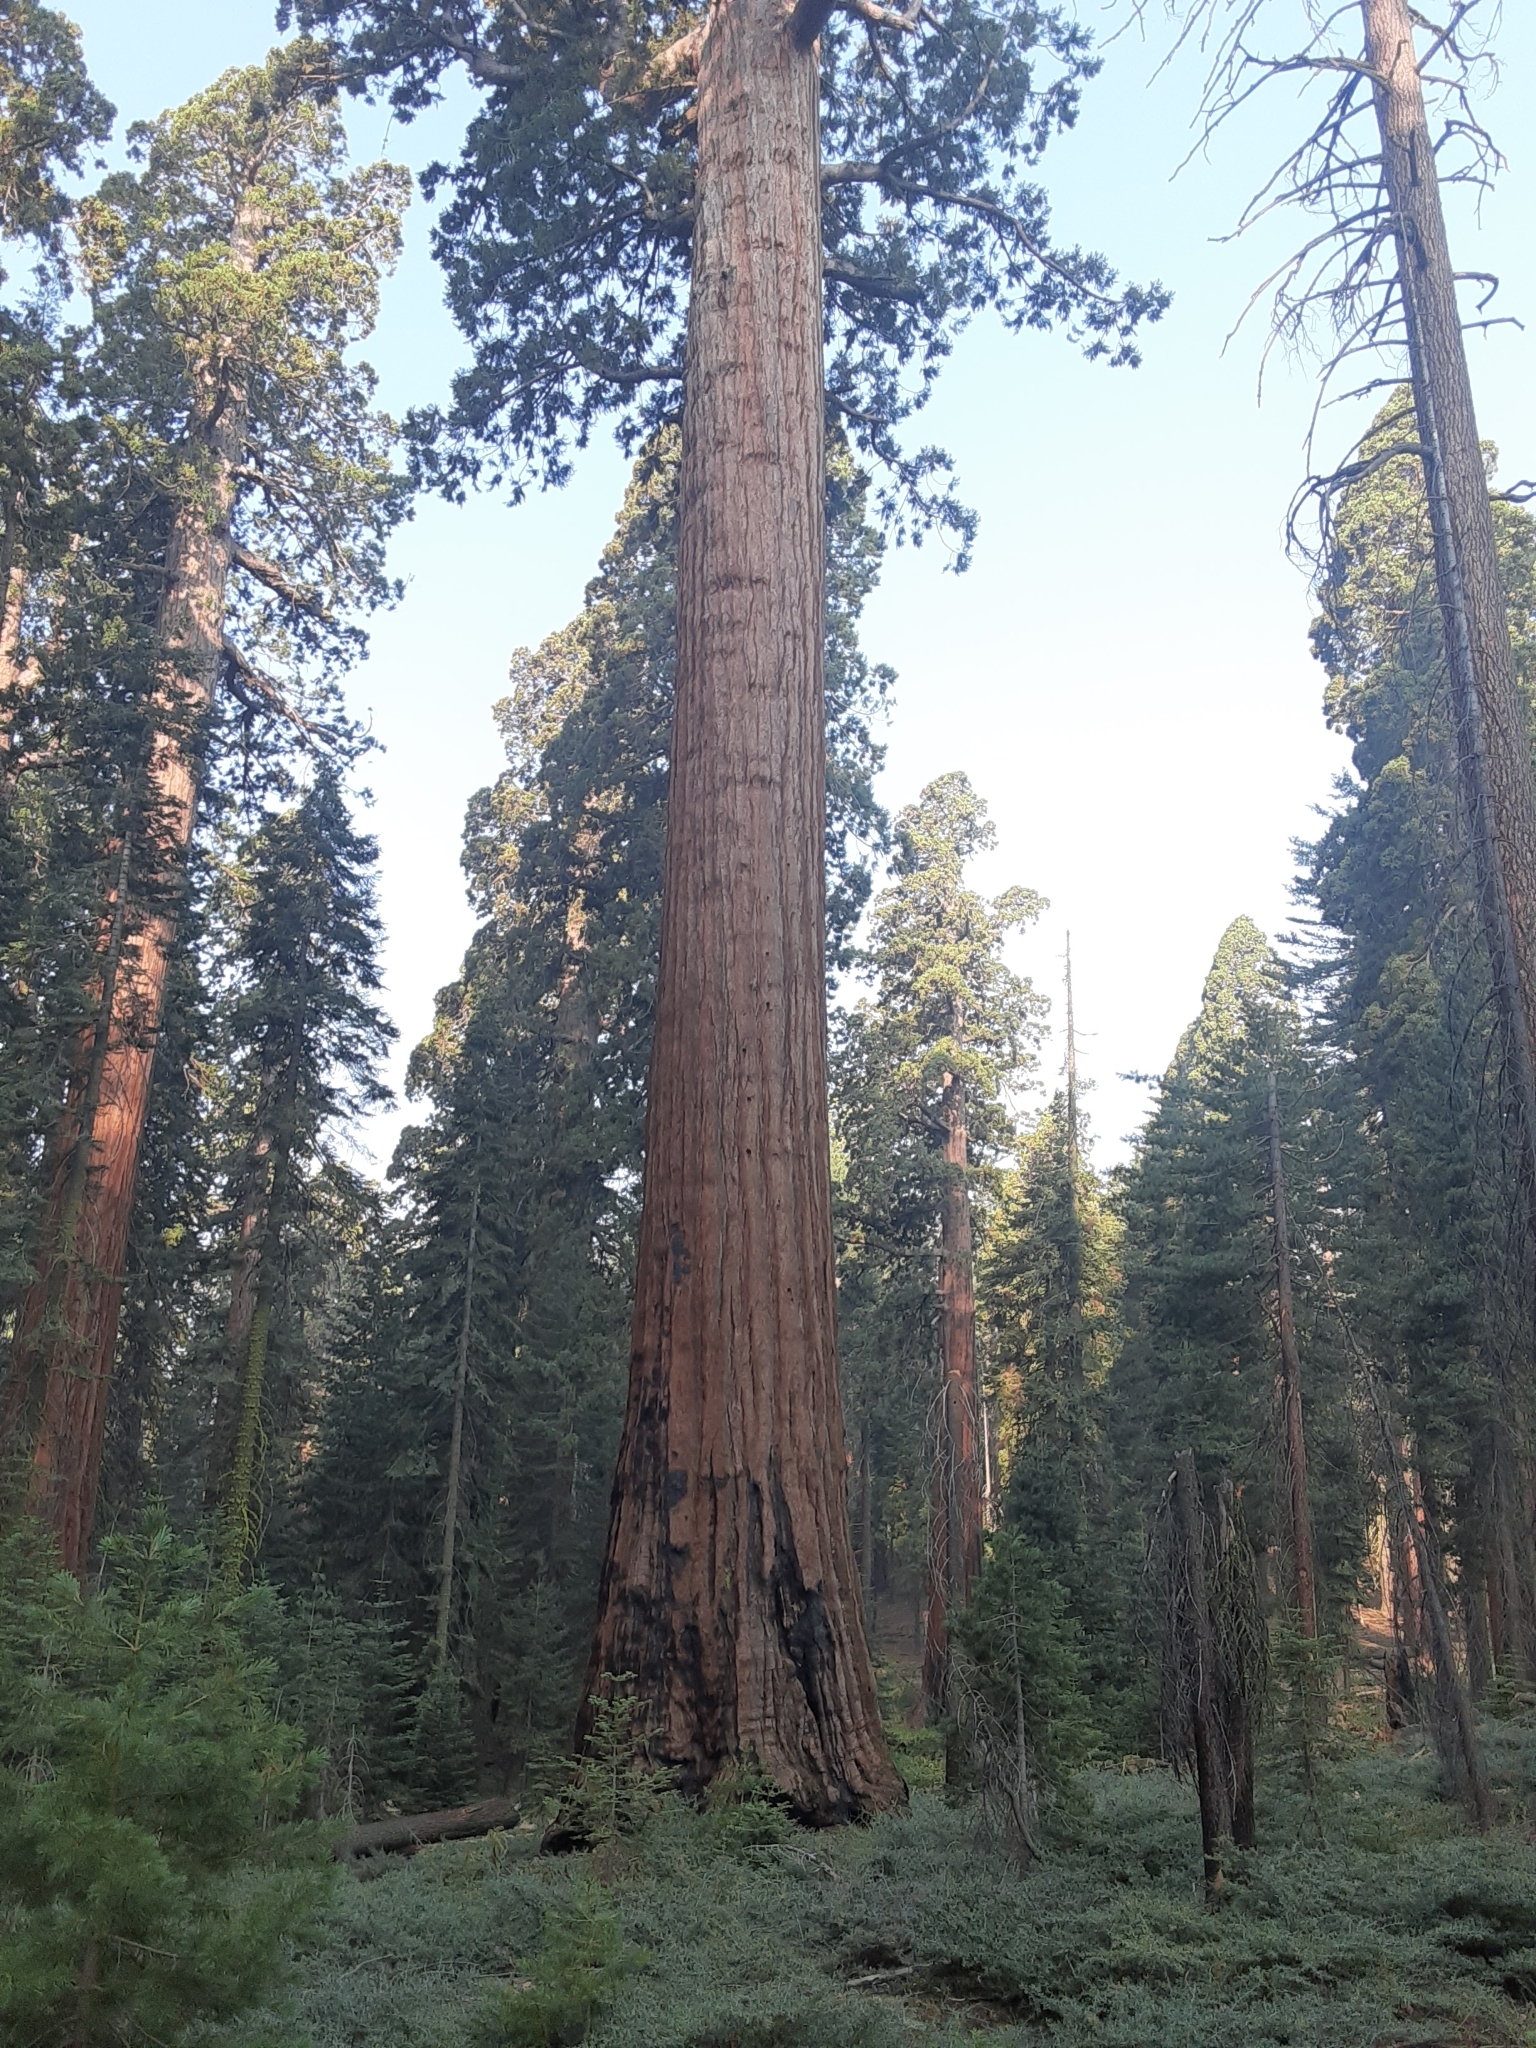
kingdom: Plantae
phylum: Tracheophyta
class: Pinopsida
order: Pinales
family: Cupressaceae
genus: Sequoiadendron
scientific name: Sequoiadendron giganteum
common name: Wellingtonia
